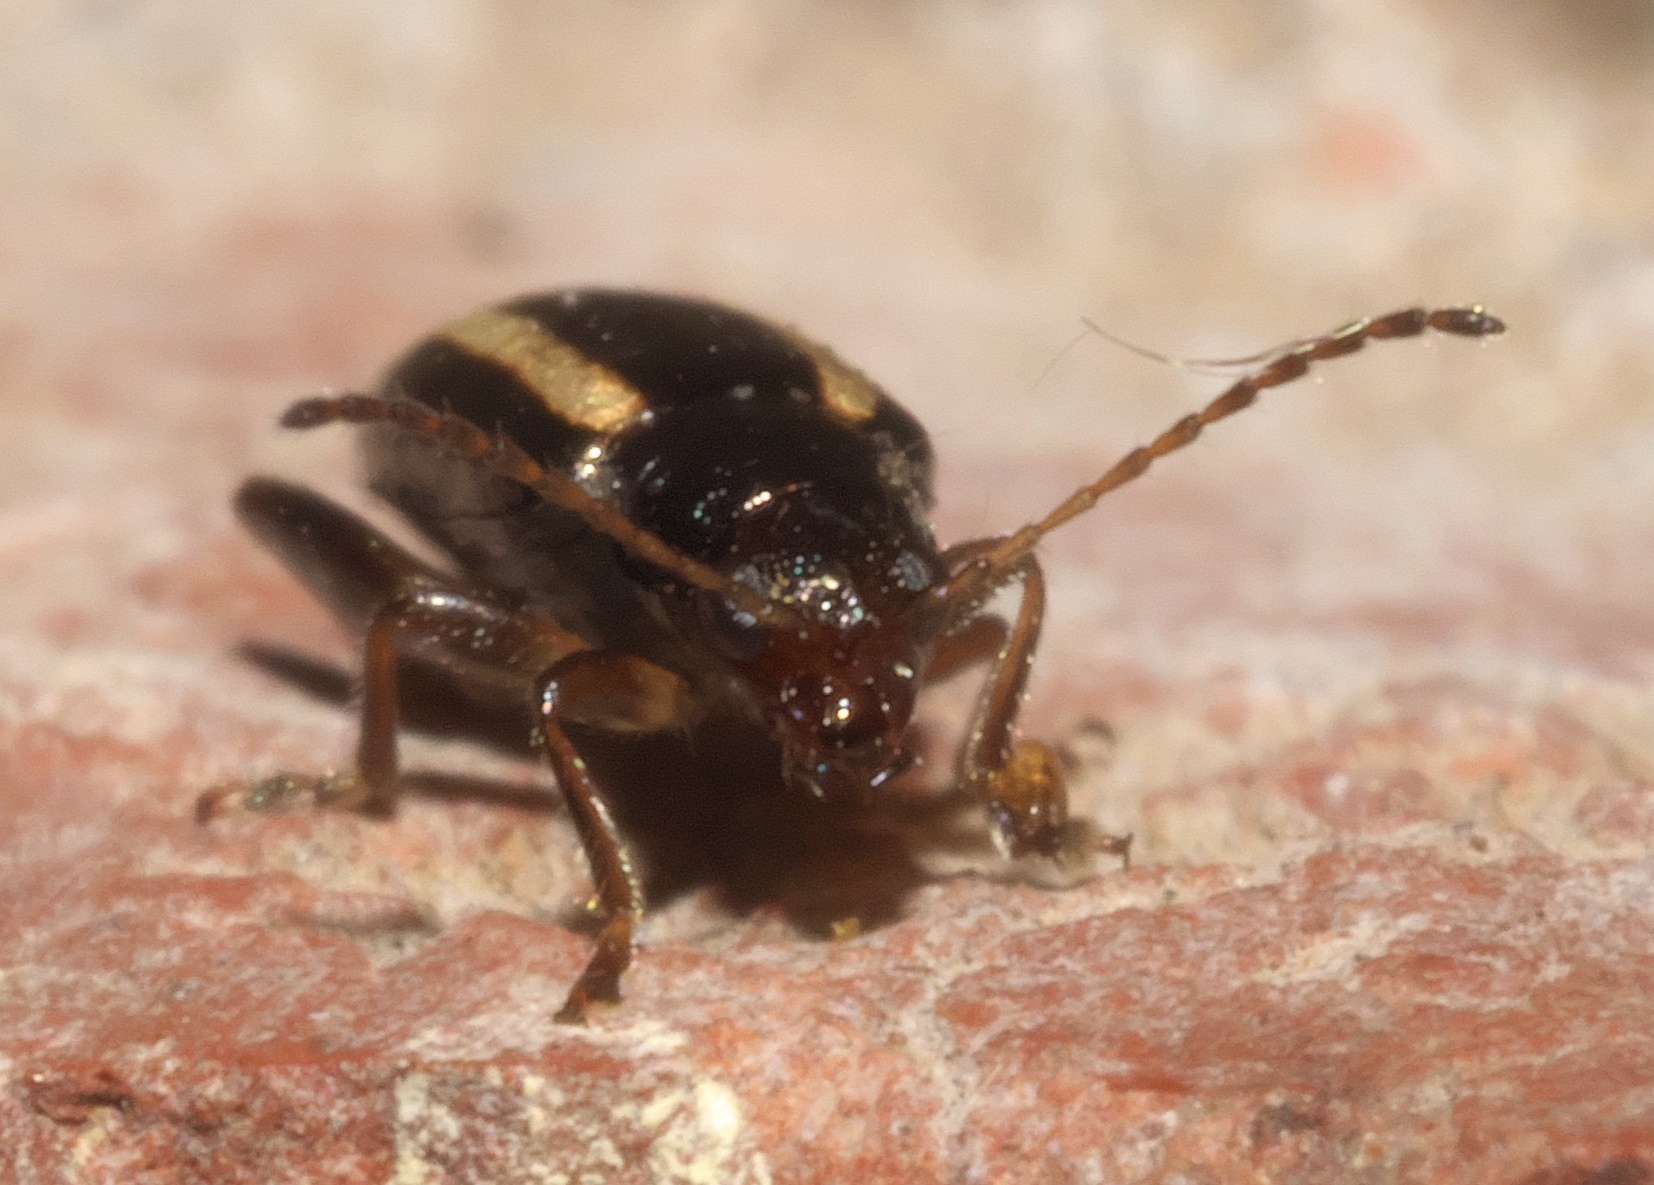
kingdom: Animalia
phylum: Arthropoda
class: Insecta
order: Coleoptera
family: Chrysomelidae
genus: Systena
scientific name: Systena elongata
